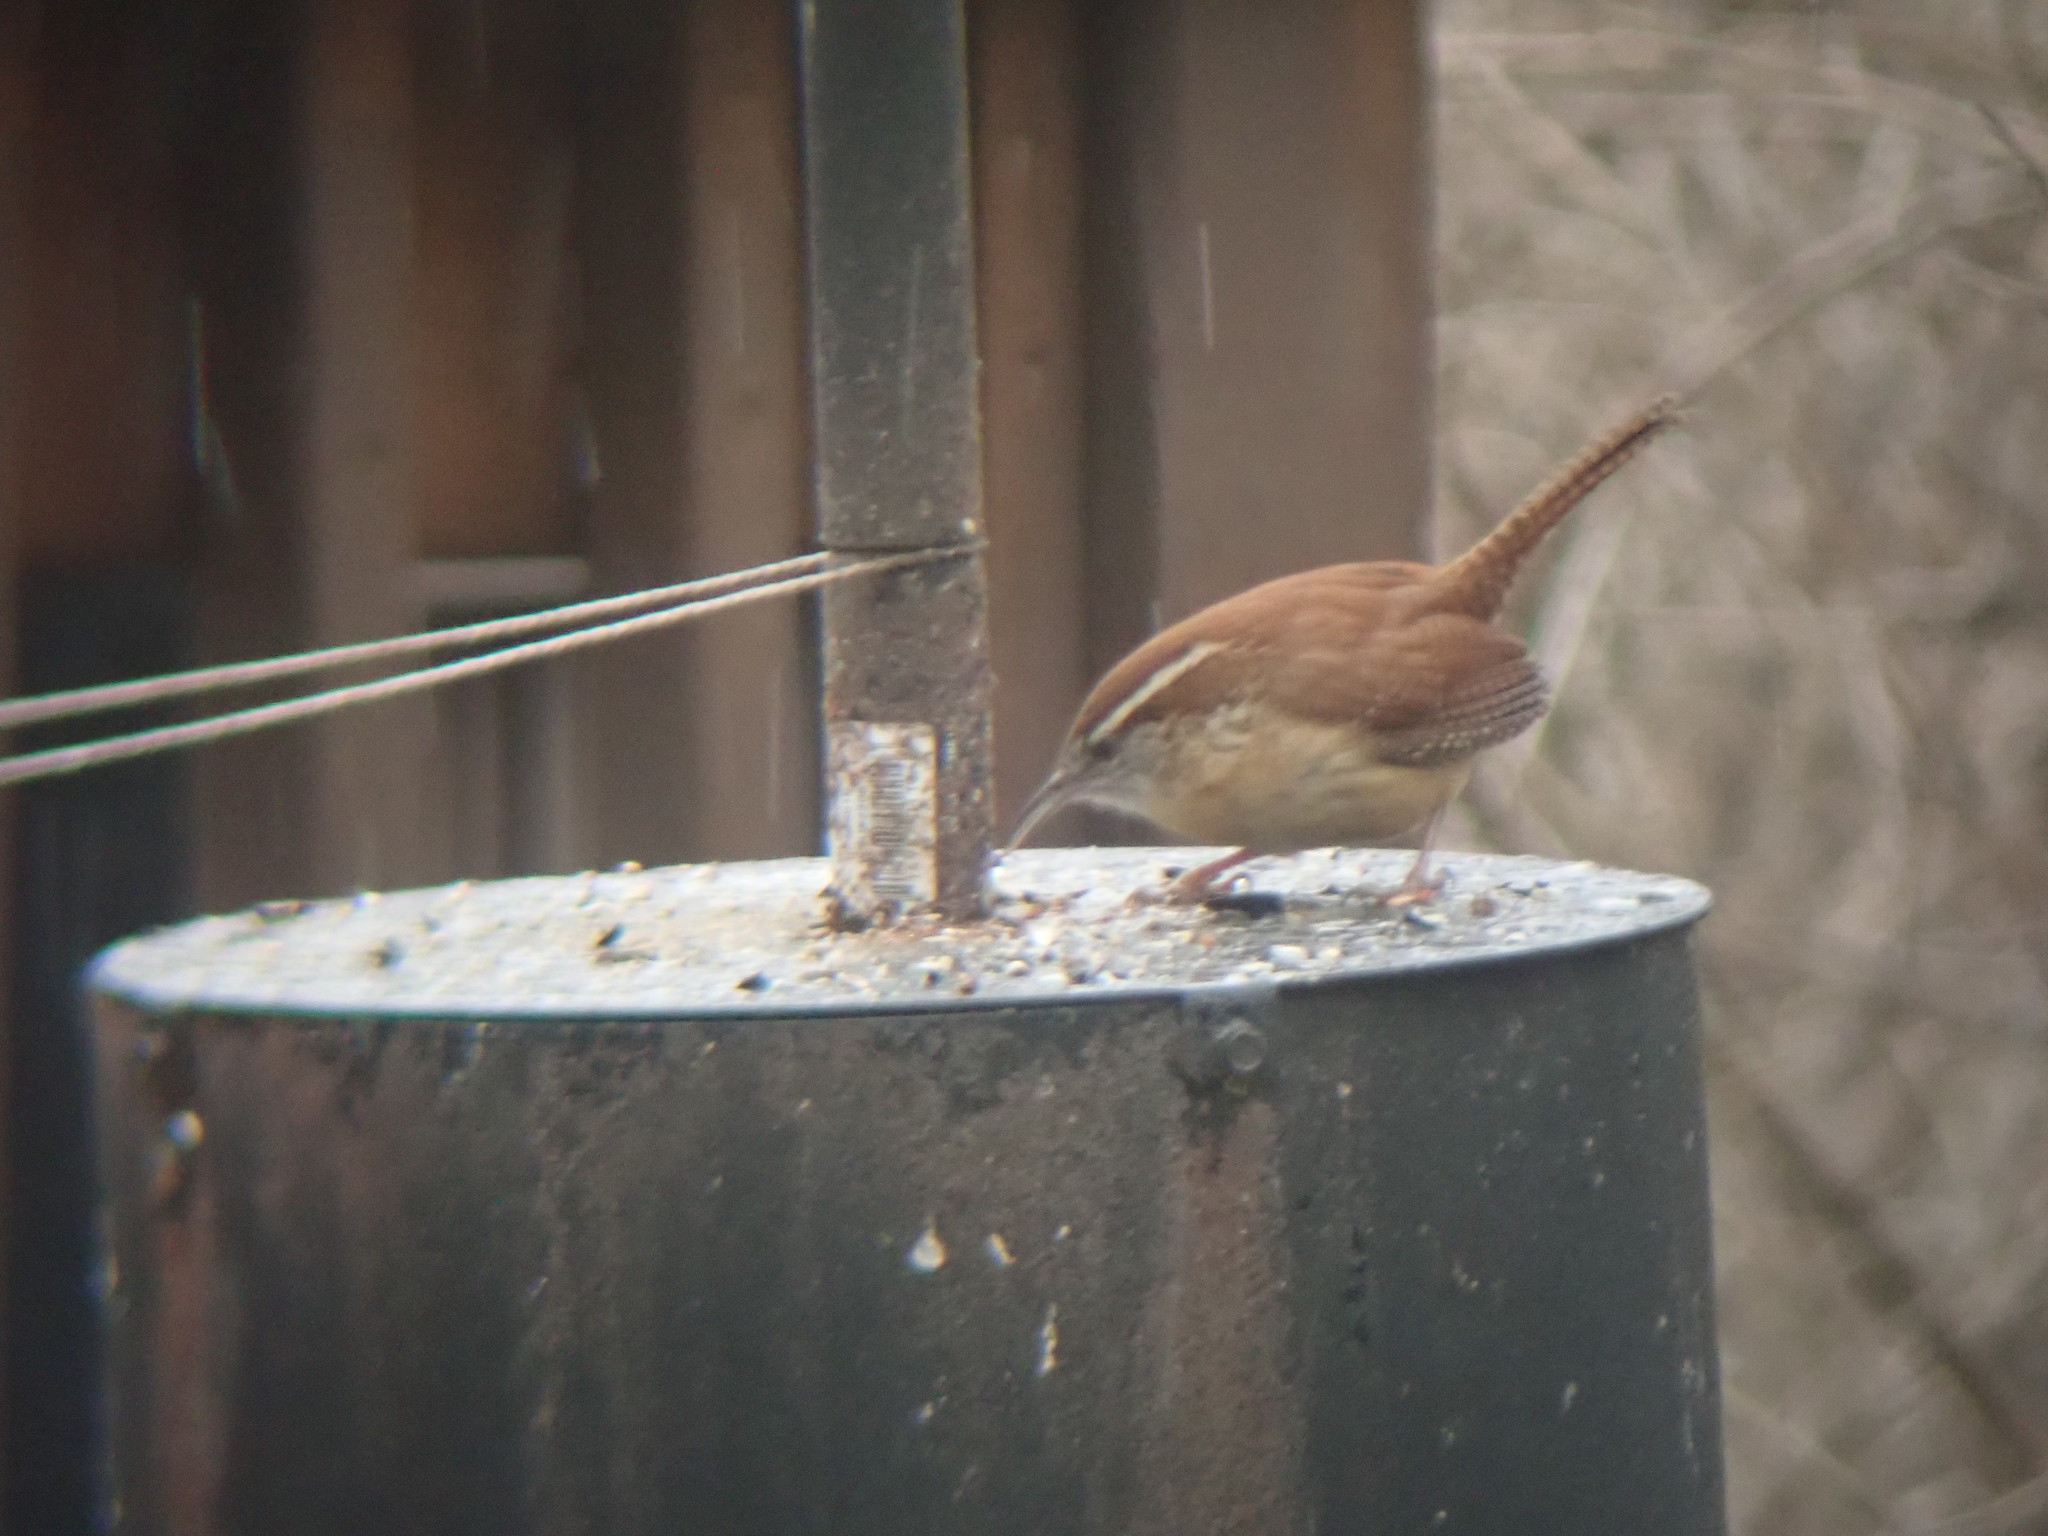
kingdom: Animalia
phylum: Chordata
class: Aves
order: Passeriformes
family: Troglodytidae
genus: Thryothorus
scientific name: Thryothorus ludovicianus
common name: Carolina wren
